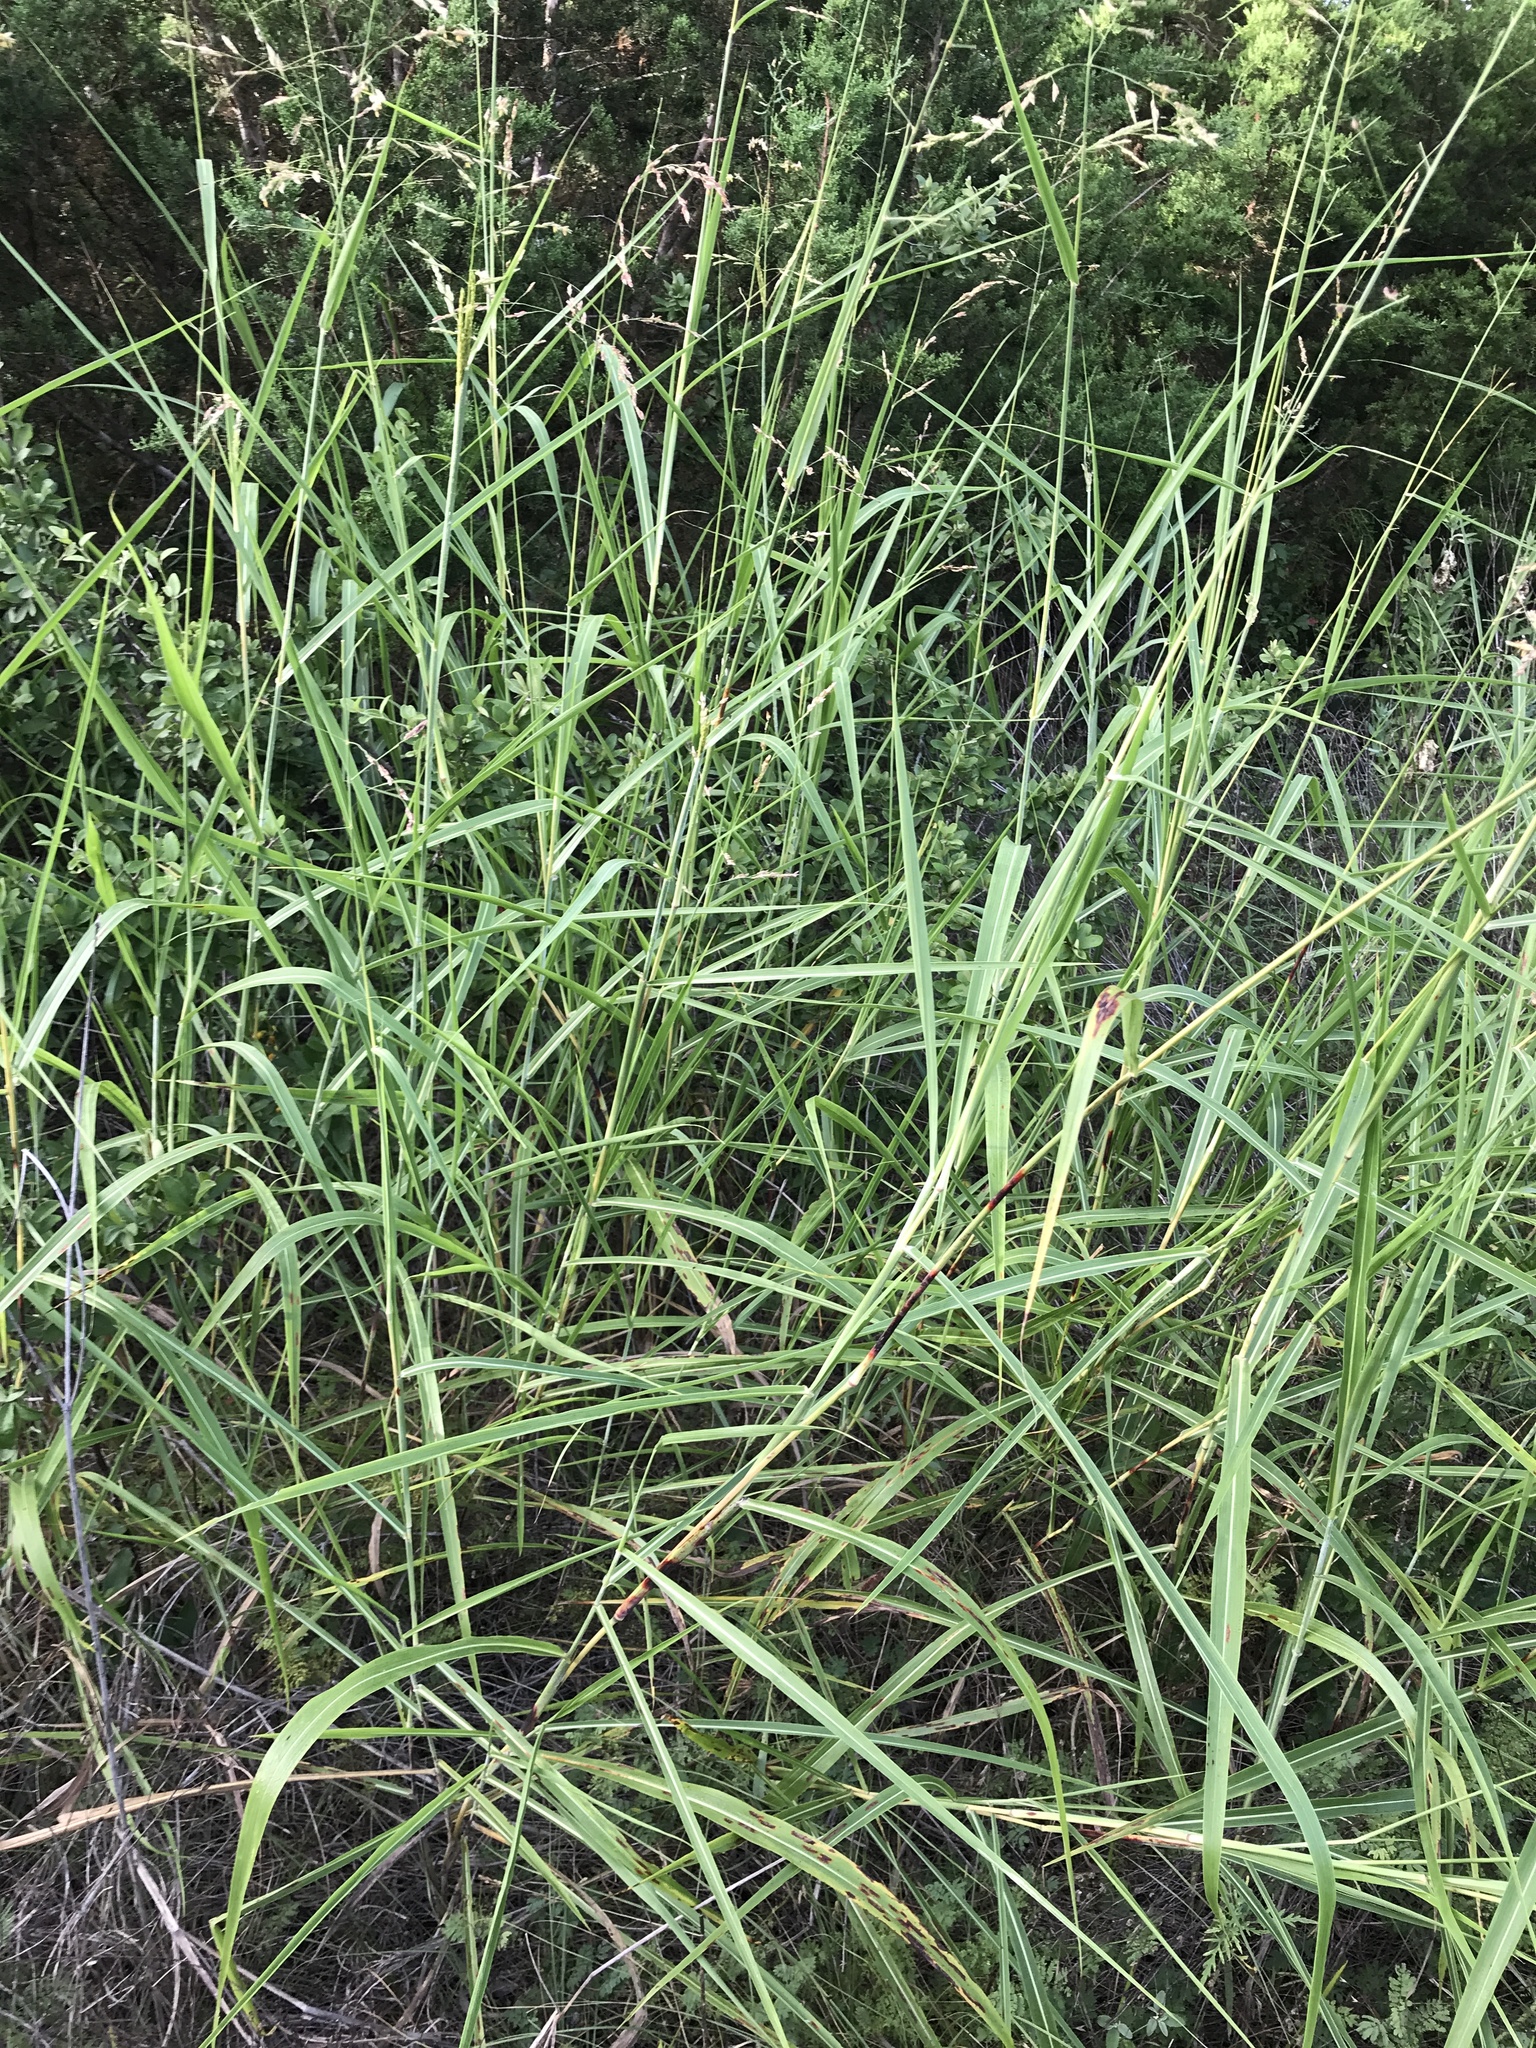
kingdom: Plantae
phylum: Tracheophyta
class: Liliopsida
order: Poales
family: Poaceae
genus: Sorghum
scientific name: Sorghum halepense
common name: Johnson-grass
